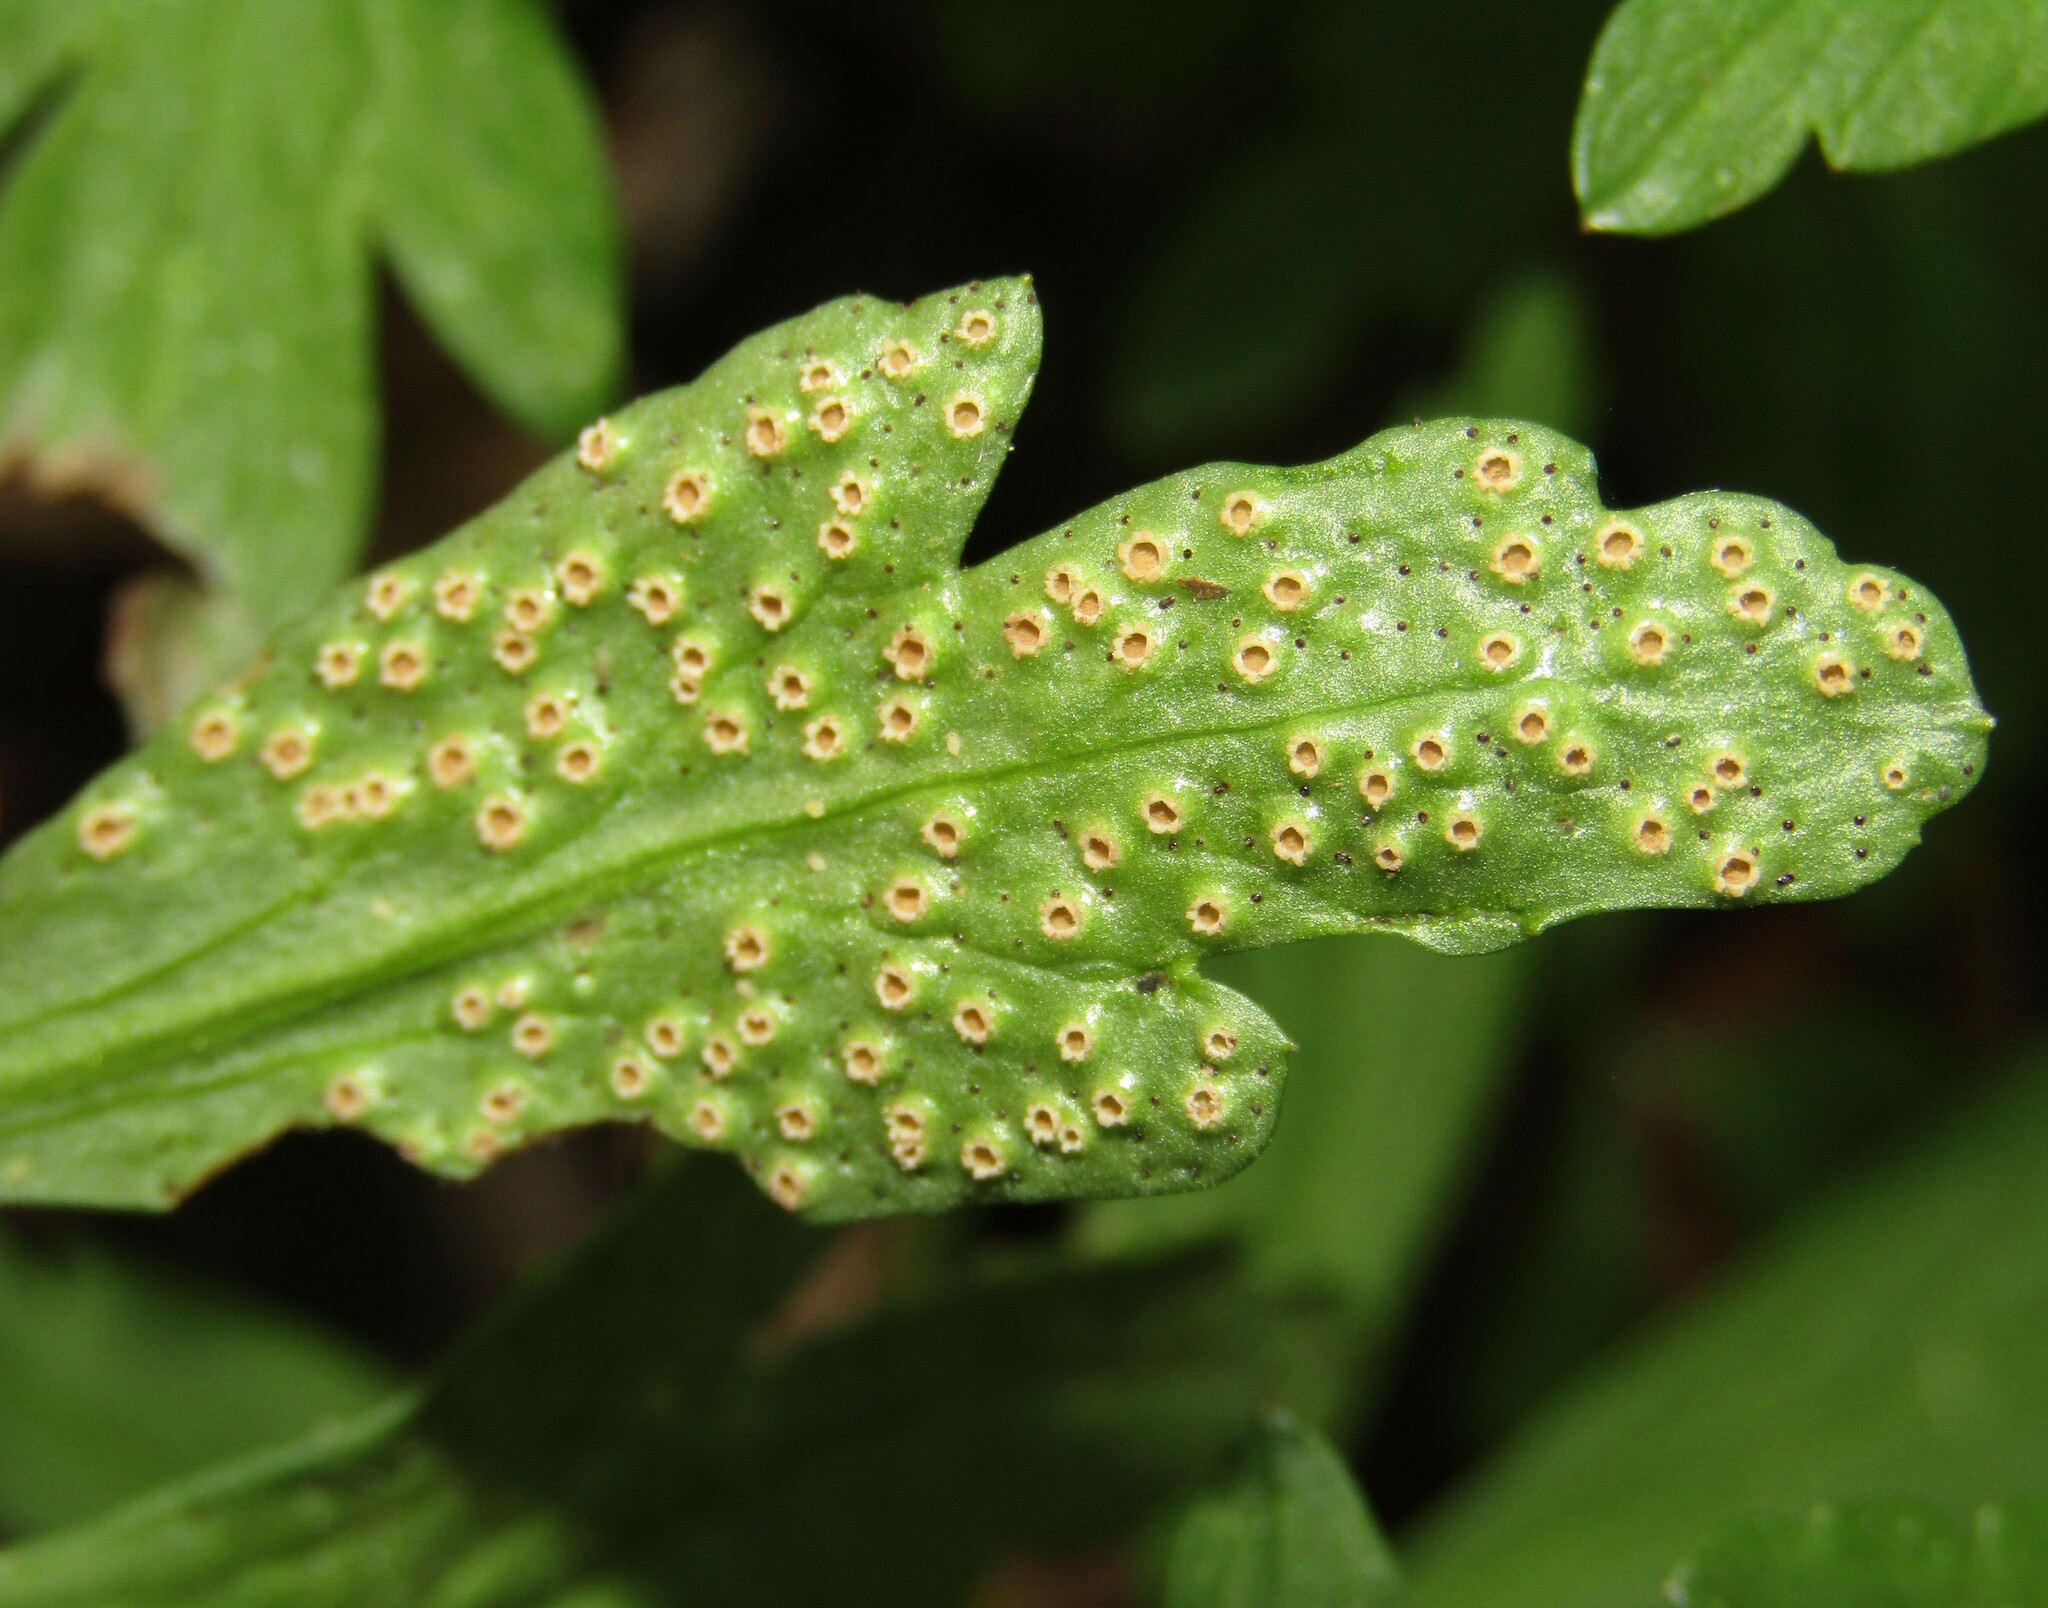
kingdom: Fungi
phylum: Basidiomycota
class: Pucciniomycetes
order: Pucciniales
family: Tranzscheliaceae
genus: Tranzschelia
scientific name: Tranzschelia pruni-spinosae
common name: Blackthorn rust
